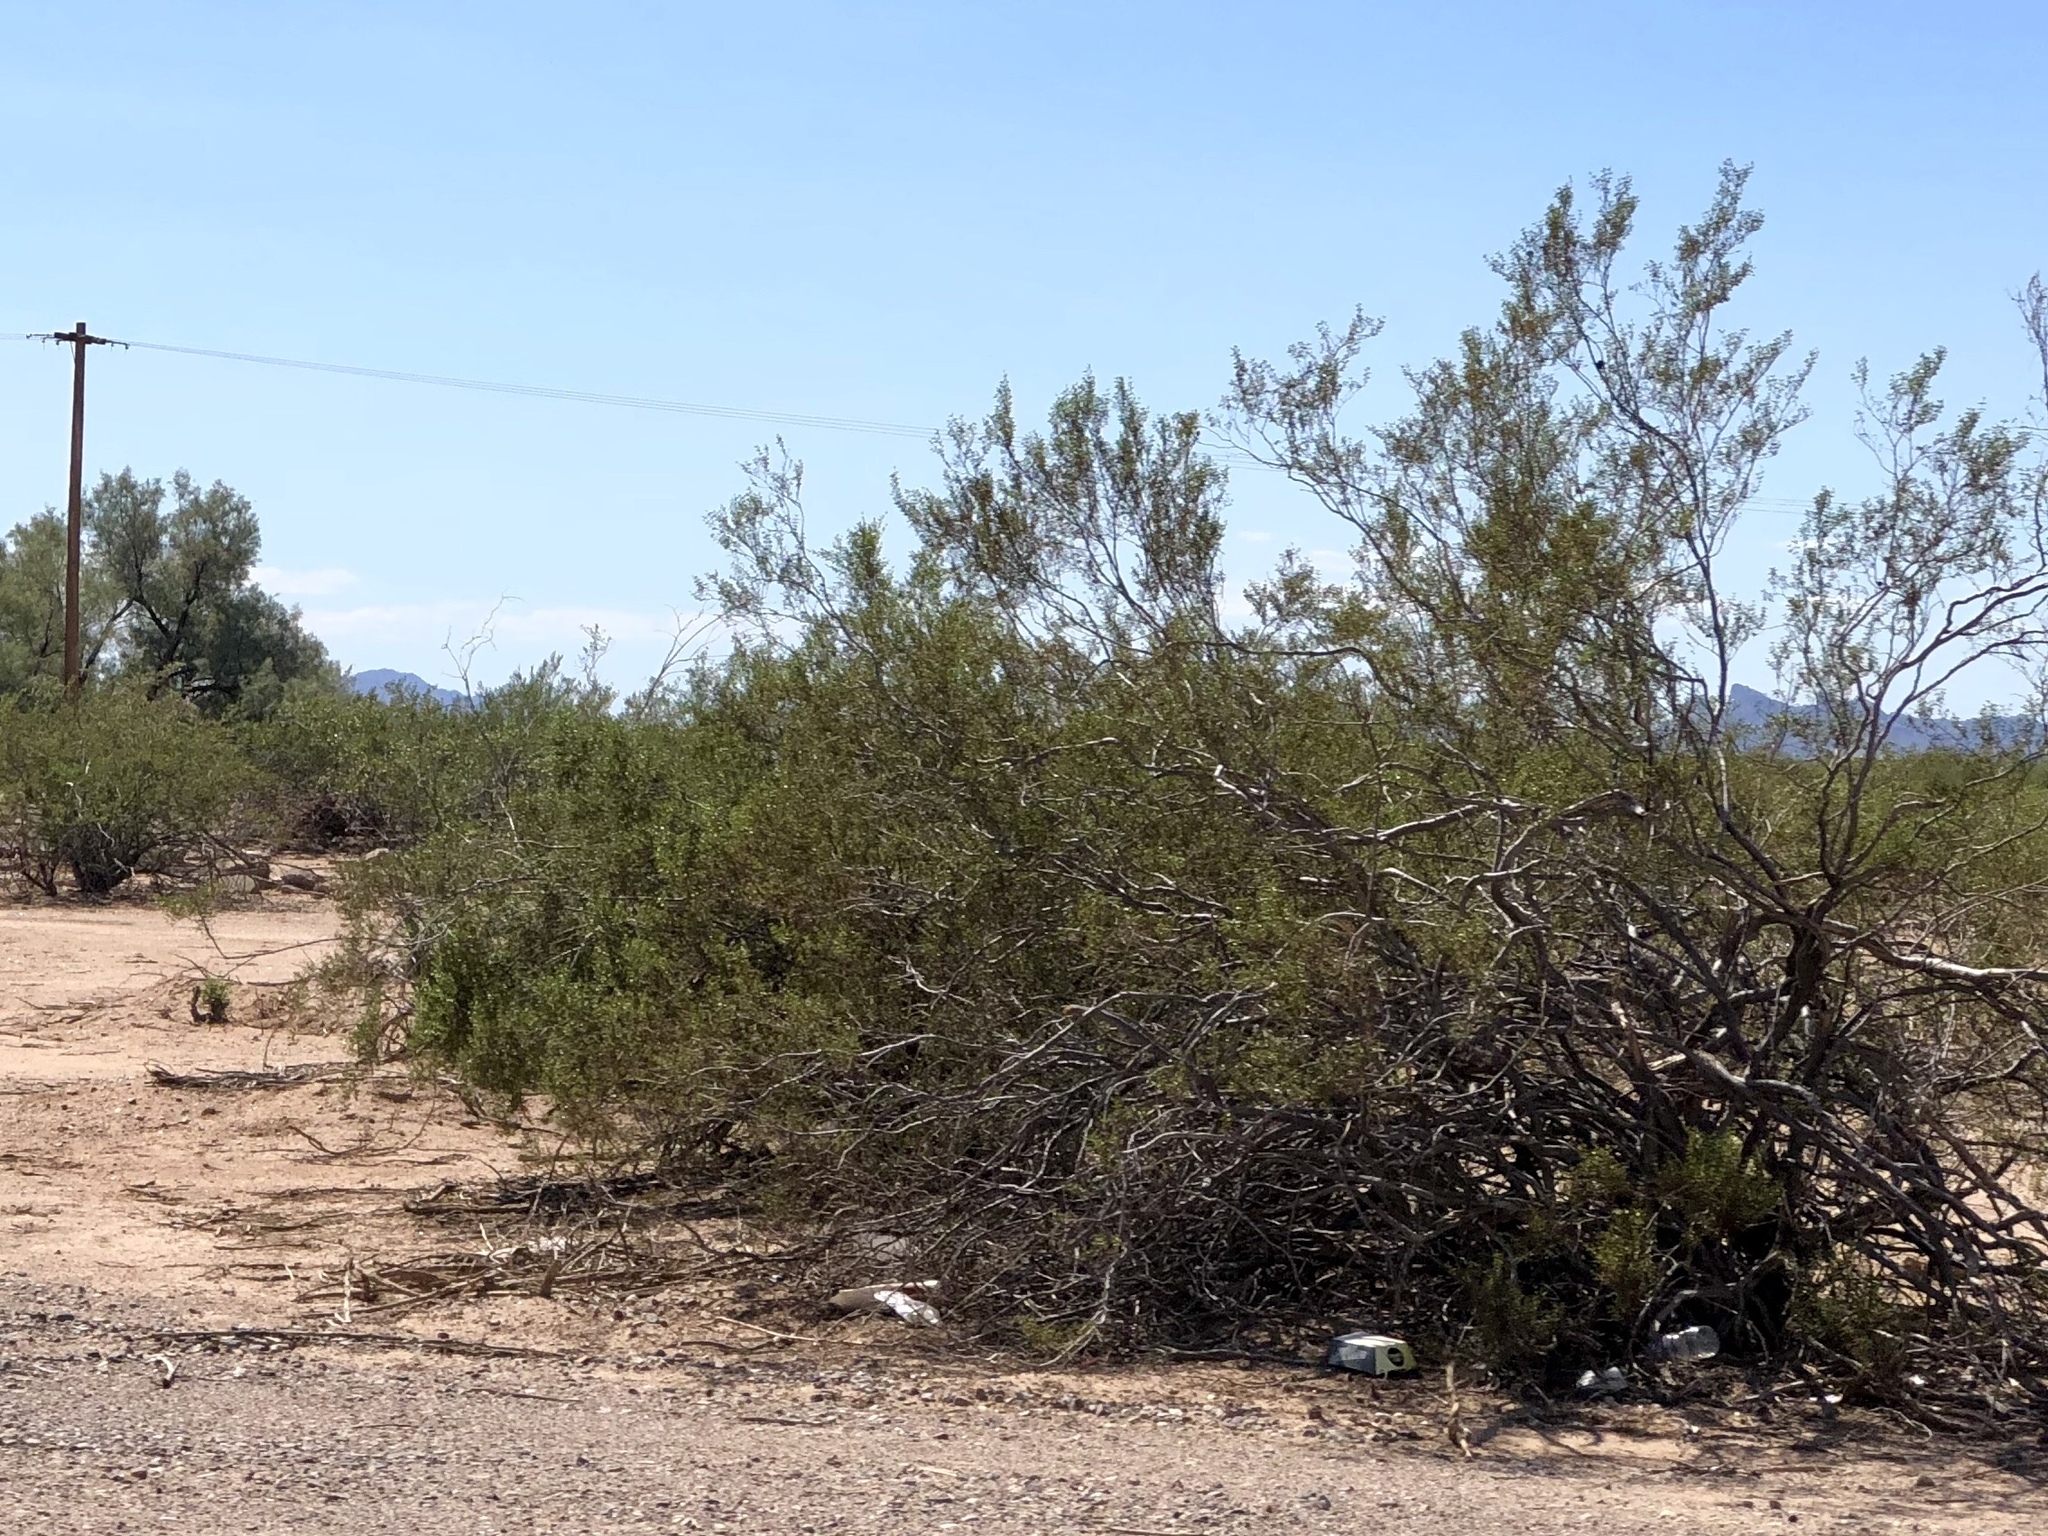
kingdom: Plantae
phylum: Tracheophyta
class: Magnoliopsida
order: Zygophyllales
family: Zygophyllaceae
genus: Larrea
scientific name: Larrea tridentata
